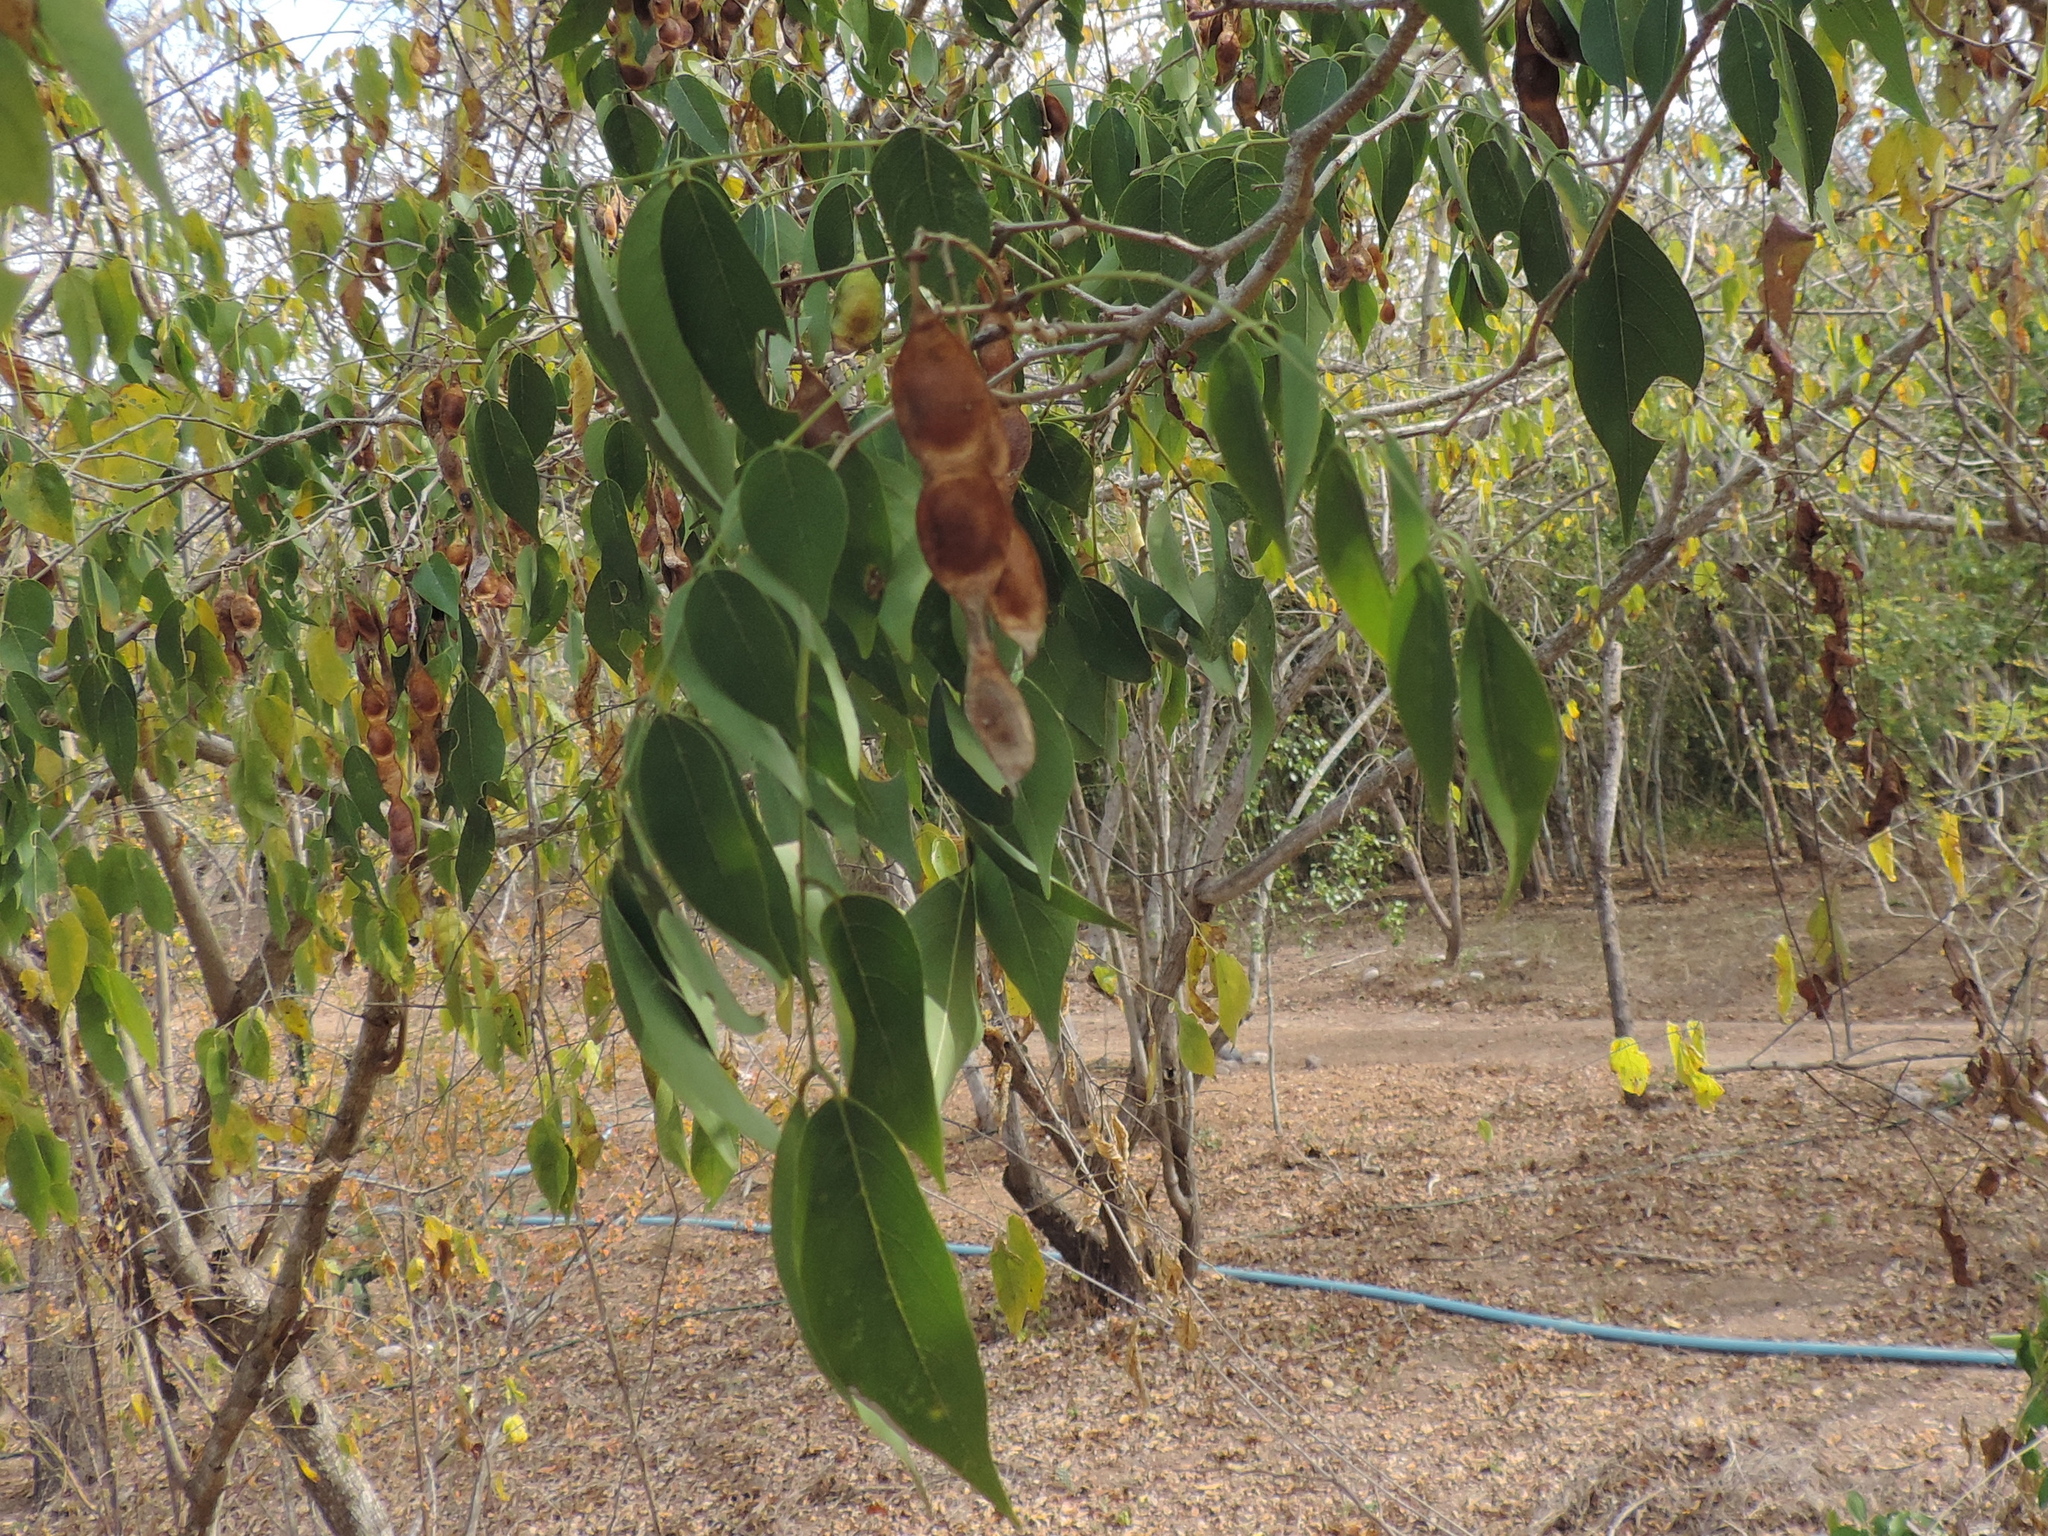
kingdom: Plantae
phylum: Tracheophyta
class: Magnoliopsida
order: Fabales
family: Fabaceae
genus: Lonchocarpus
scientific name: Lonchocarpus lanceolatus
